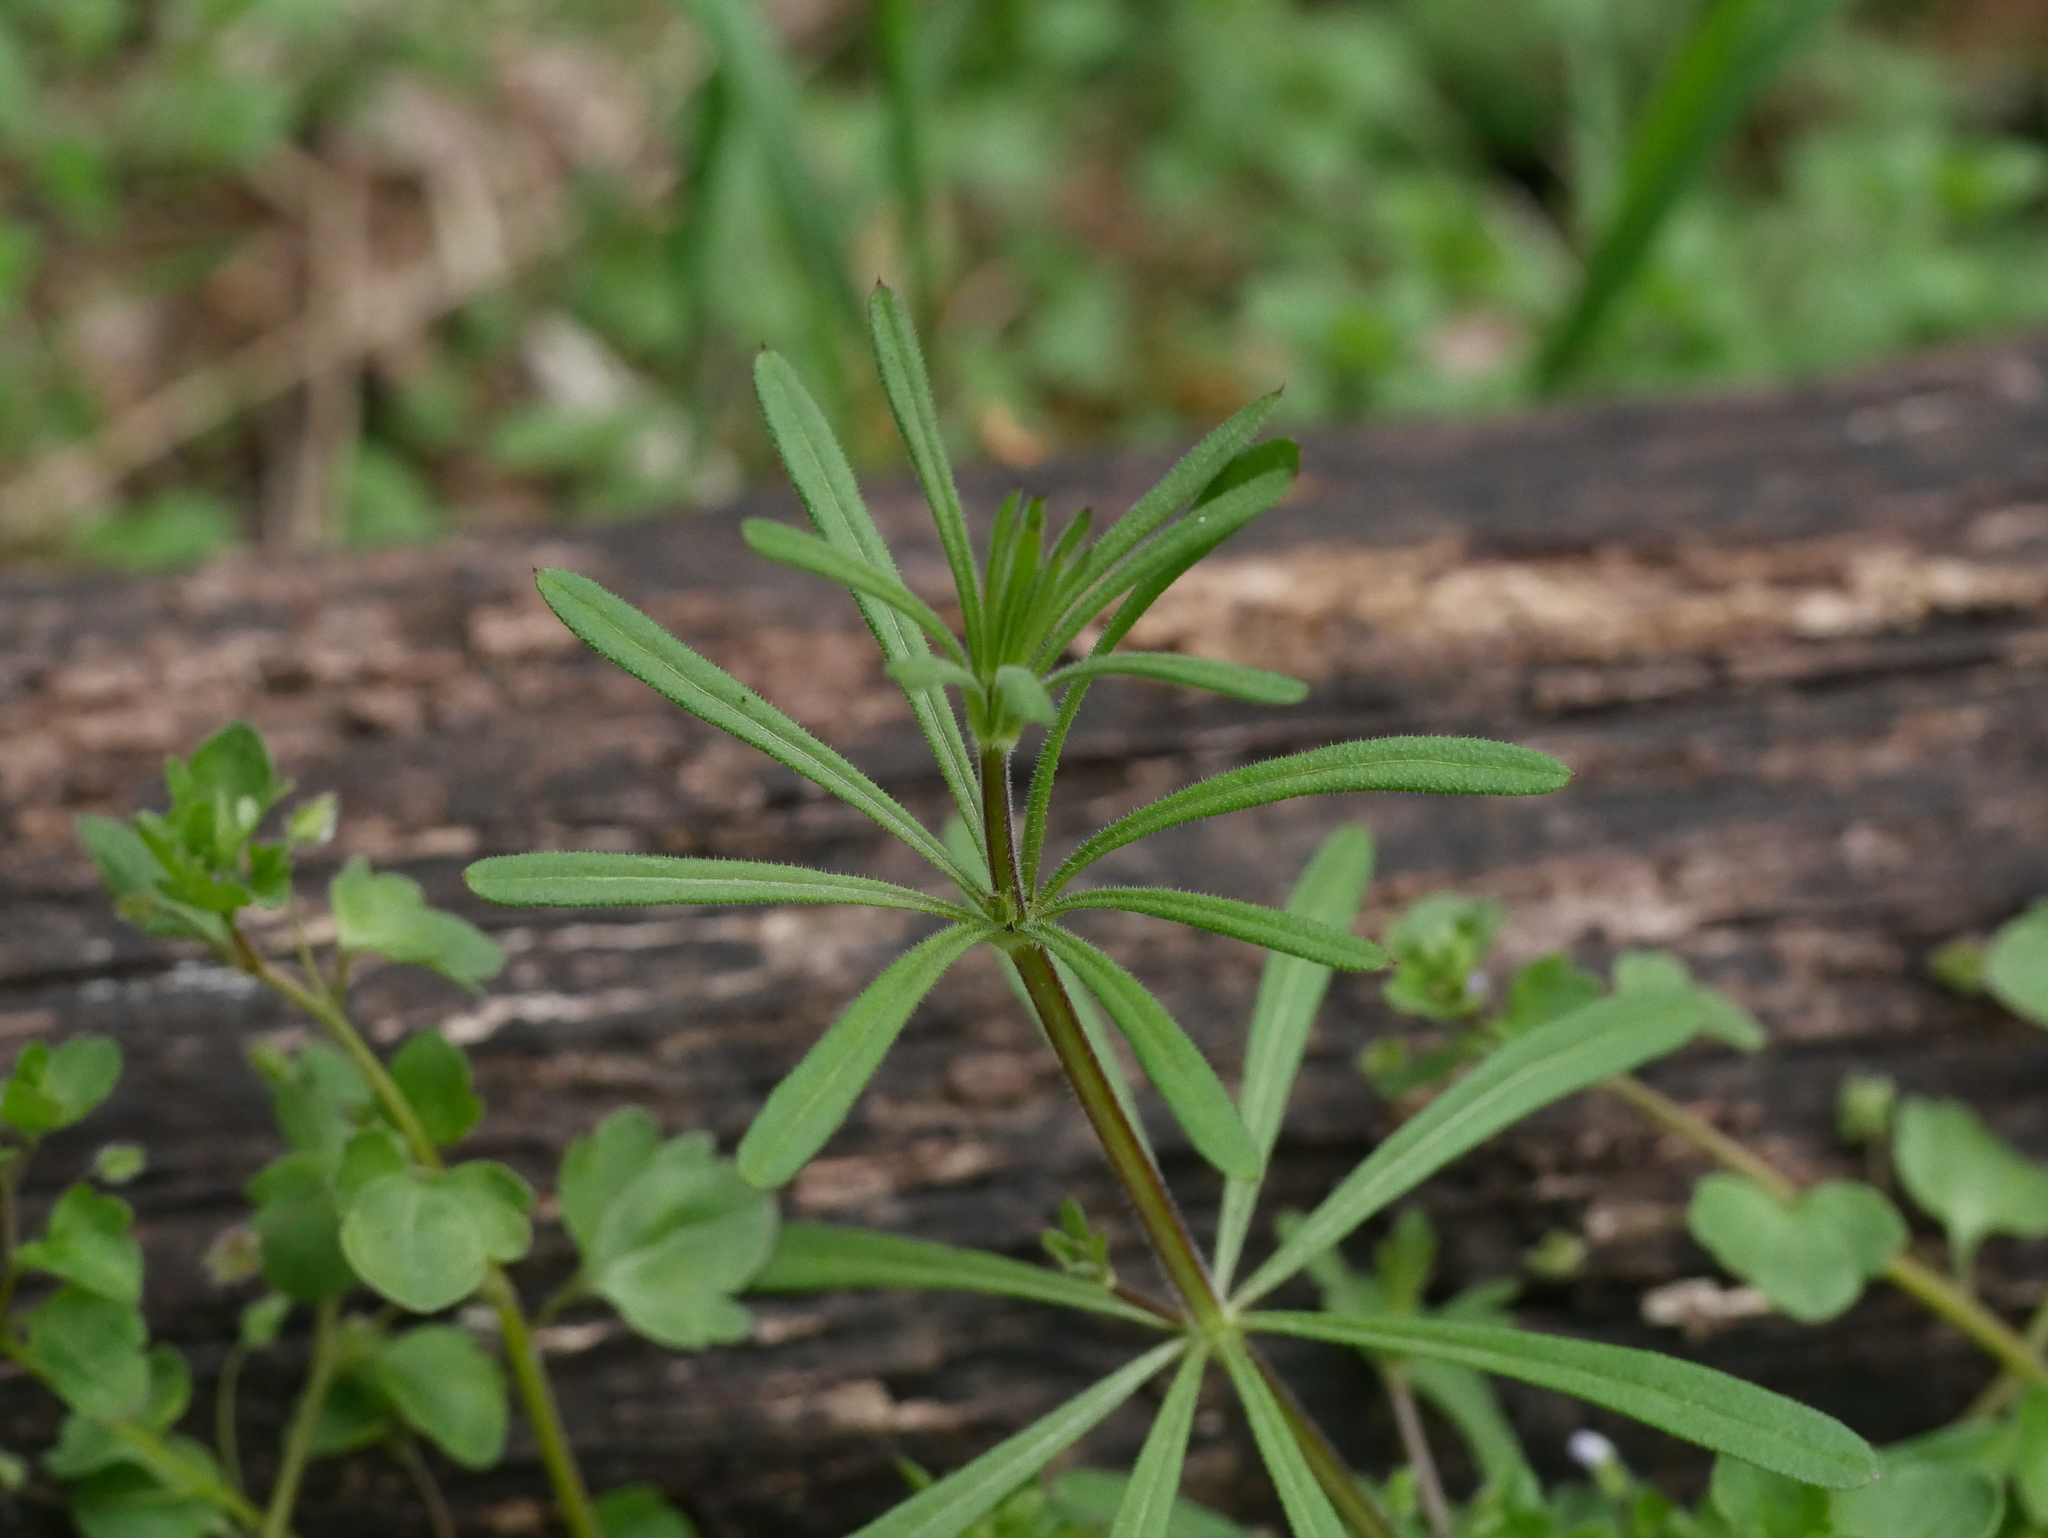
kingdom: Plantae
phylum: Tracheophyta
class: Magnoliopsida
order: Gentianales
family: Rubiaceae
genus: Galium
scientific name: Galium aparine
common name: Cleavers
